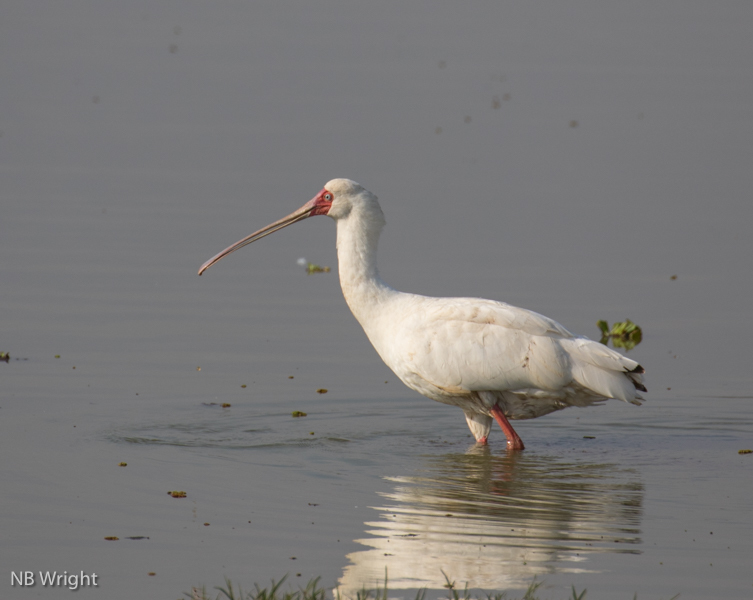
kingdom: Animalia
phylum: Chordata
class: Aves
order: Pelecaniformes
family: Threskiornithidae
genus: Platalea
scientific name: Platalea alba
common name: African spoonbill
